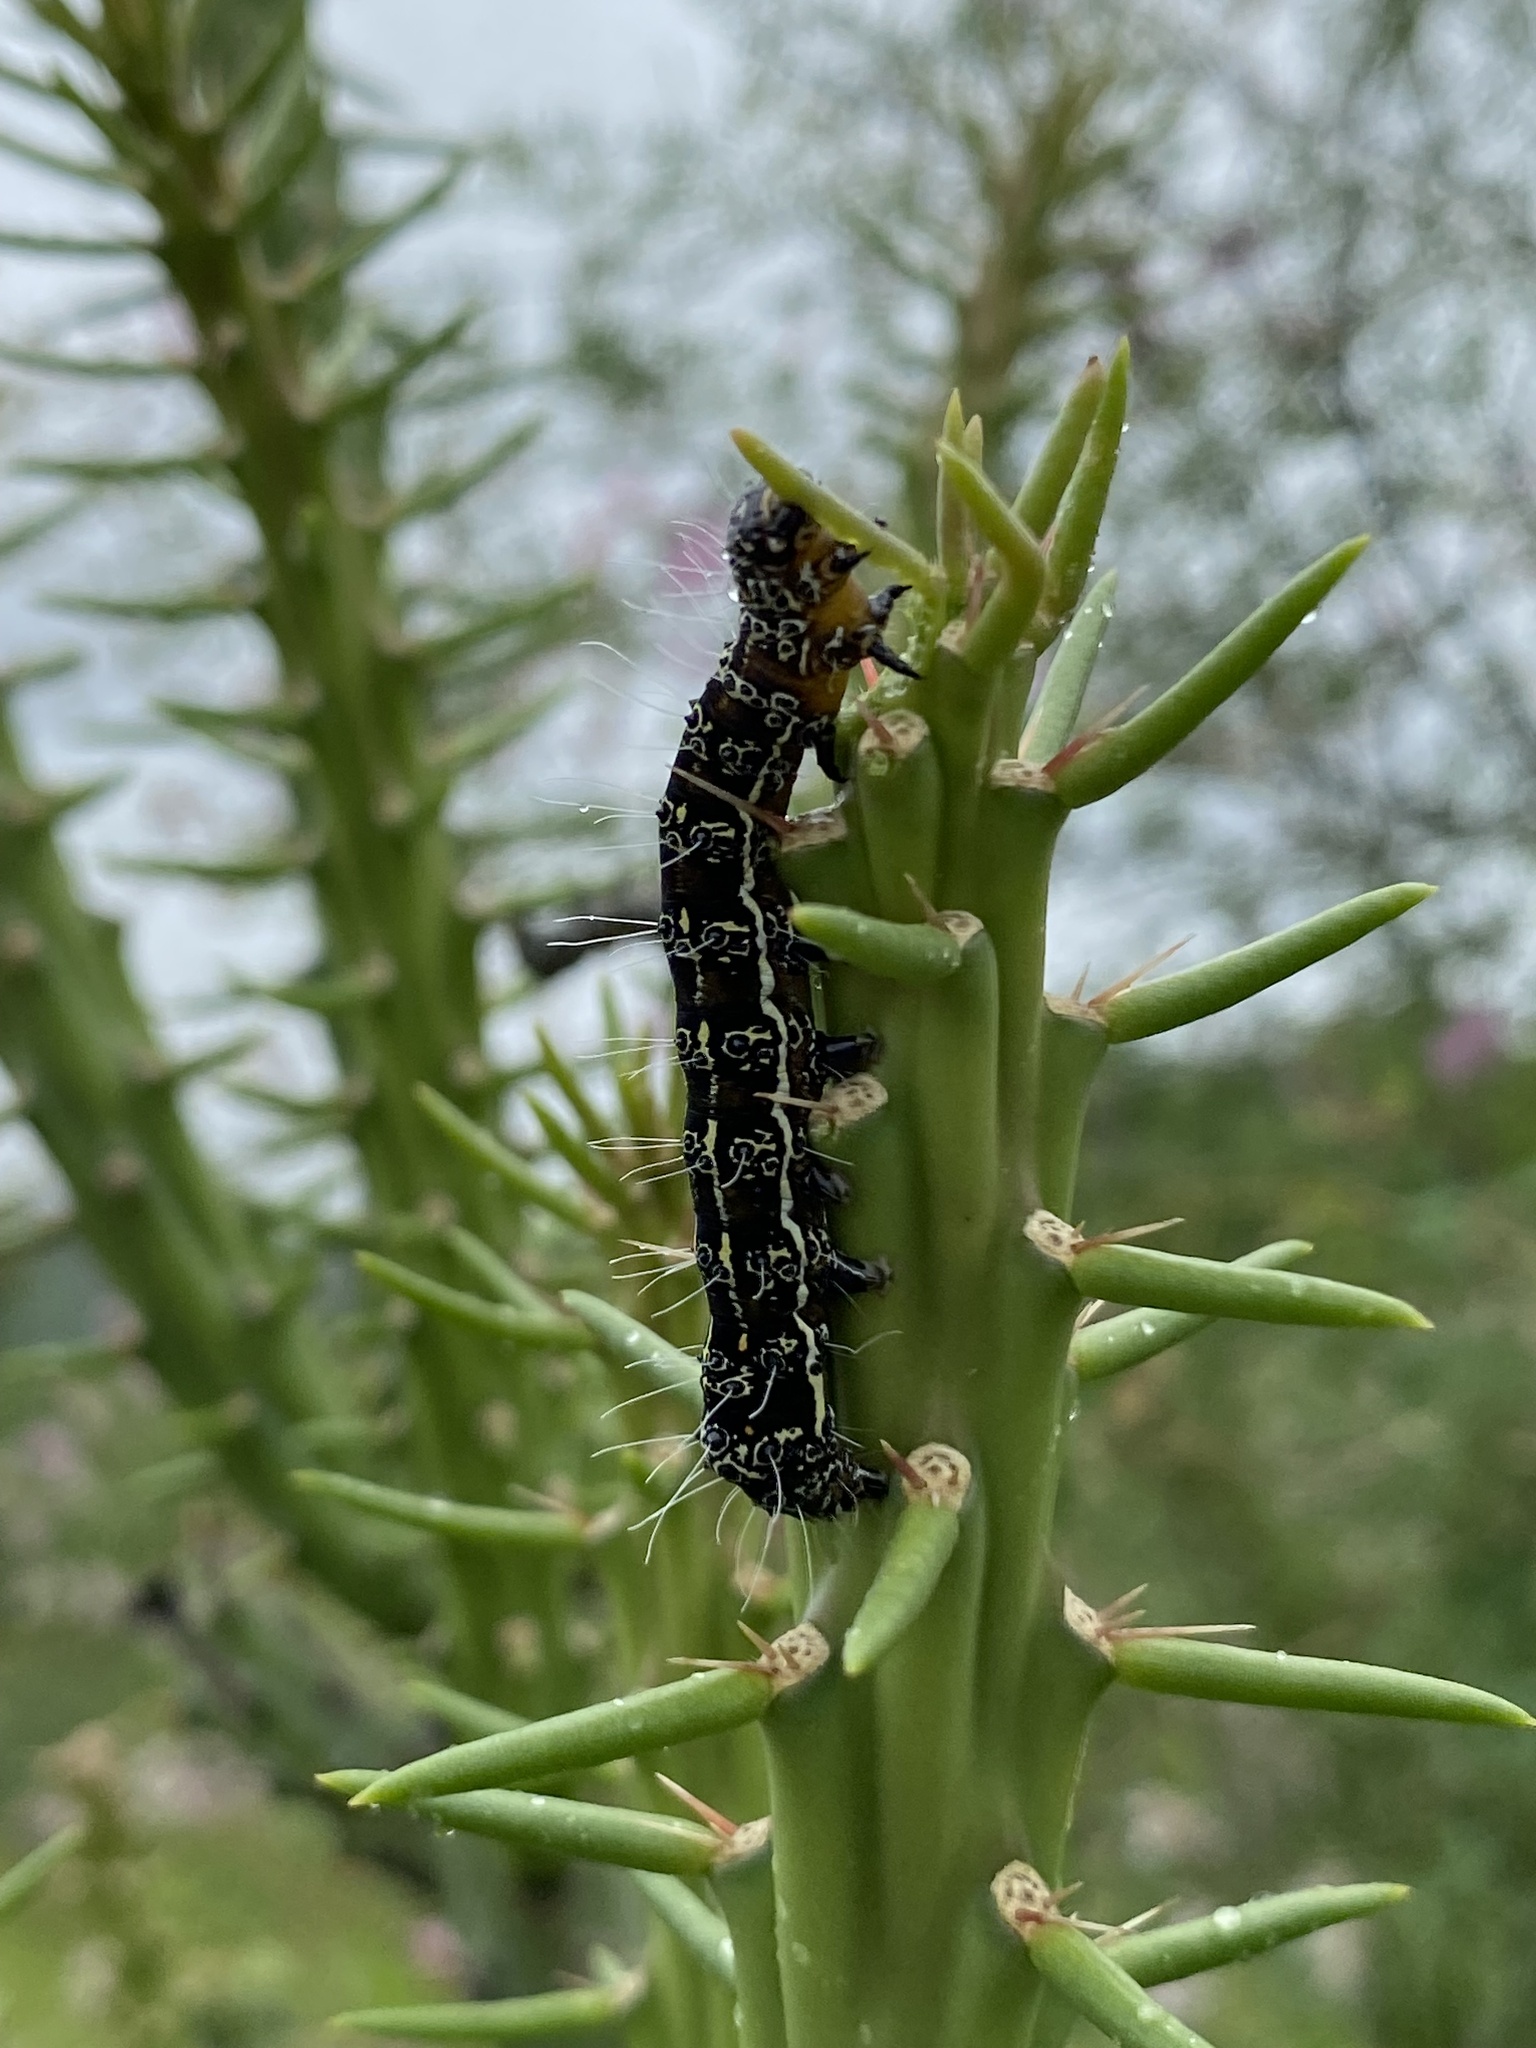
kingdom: Animalia
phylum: Arthropoda
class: Insecta
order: Lepidoptera
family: Noctuidae
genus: Euscirrhopterus
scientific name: Euscirrhopterus cosyra
